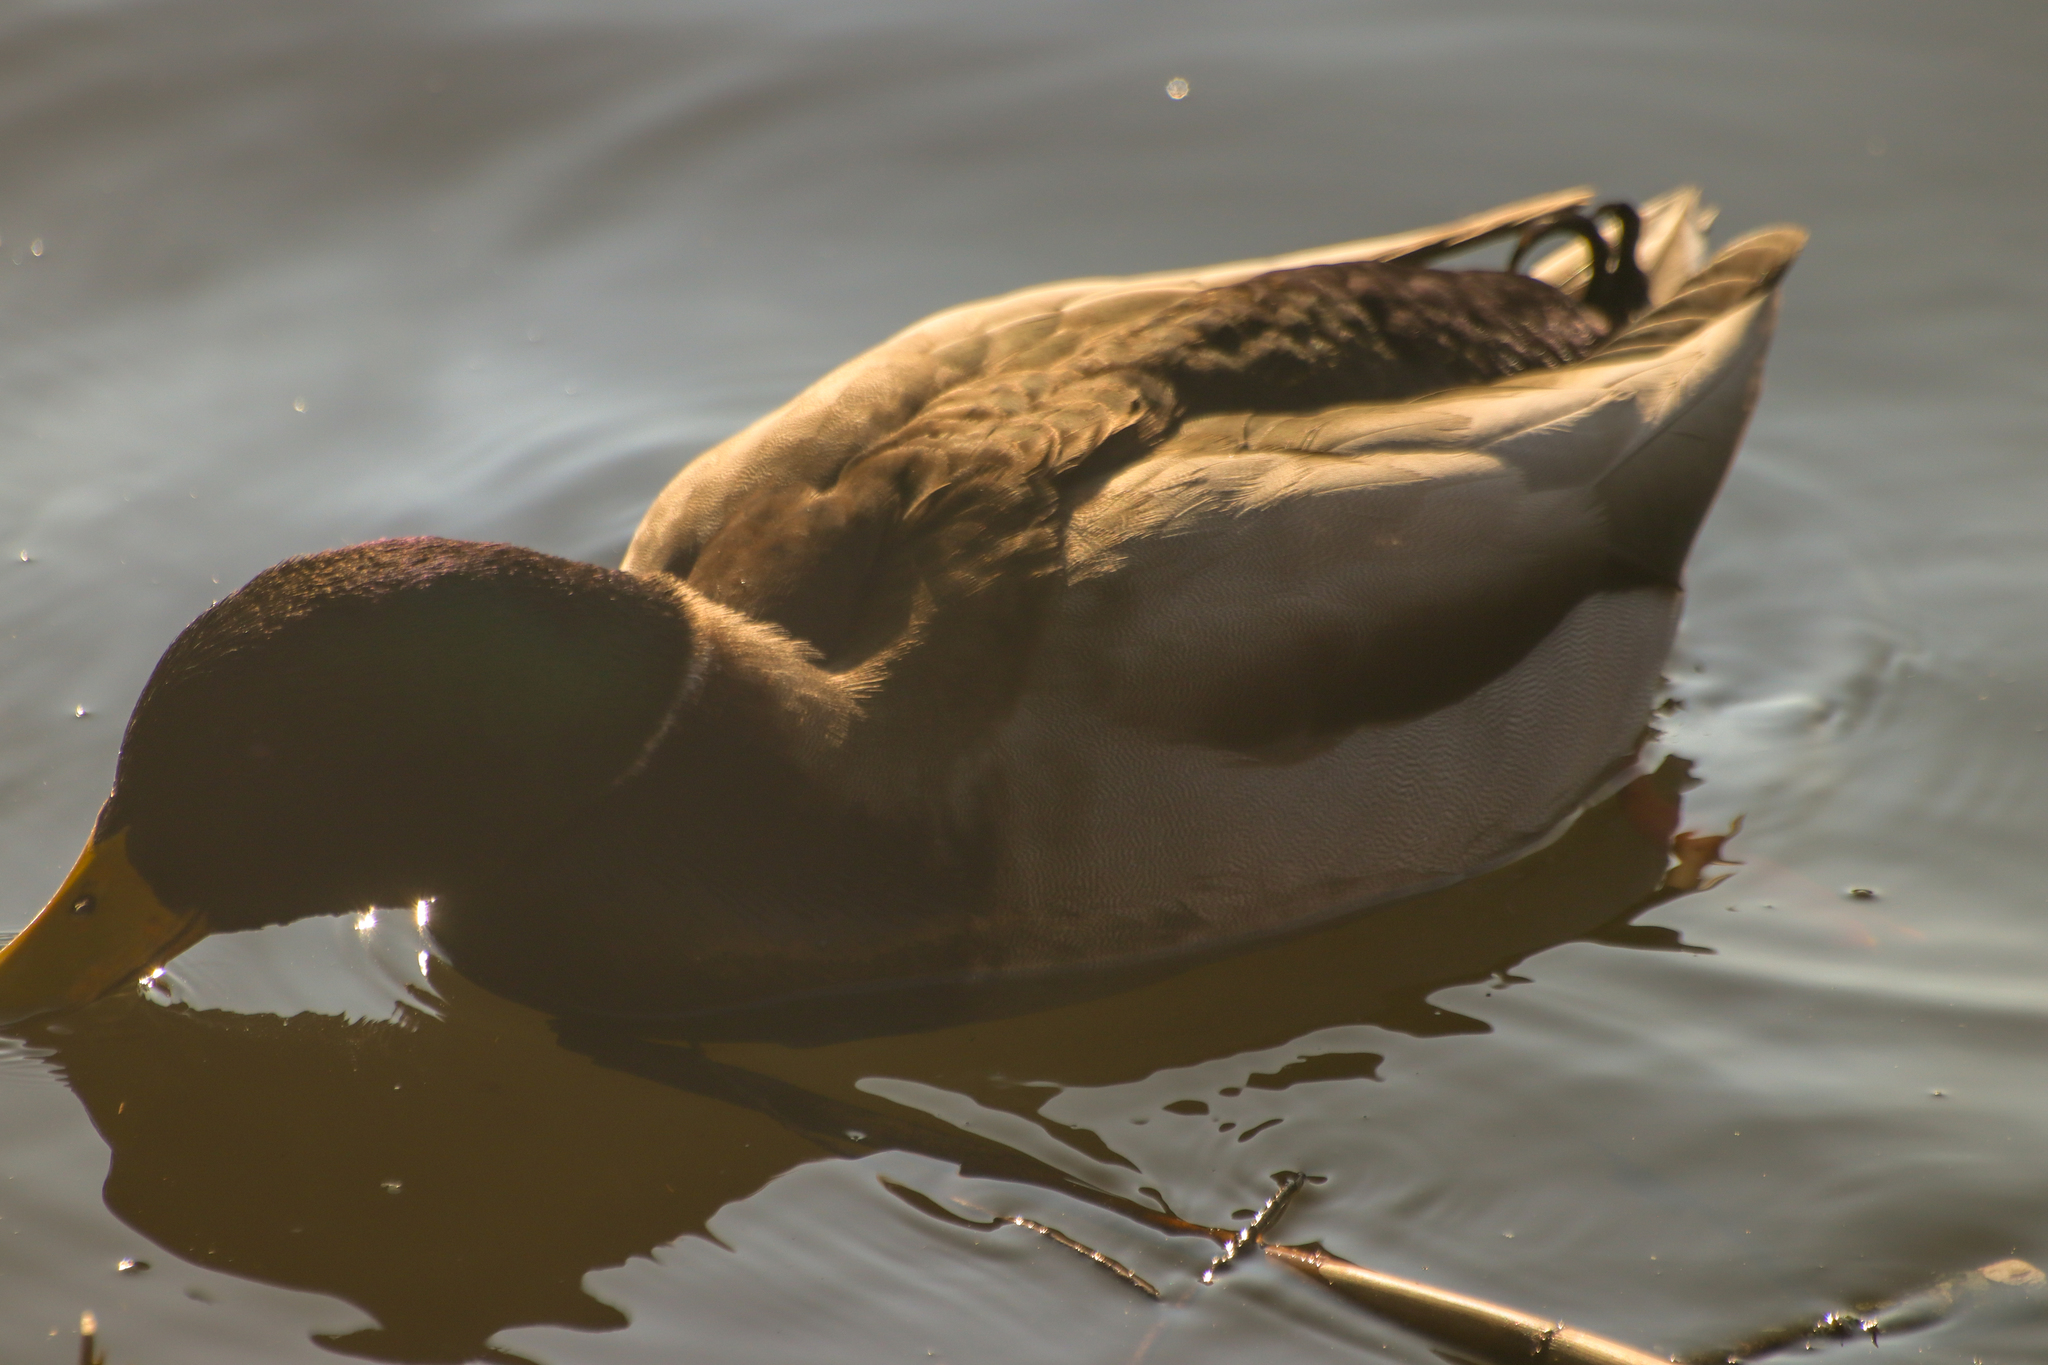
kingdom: Animalia
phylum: Chordata
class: Aves
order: Anseriformes
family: Anatidae
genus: Anas
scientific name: Anas platyrhynchos
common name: Mallard
